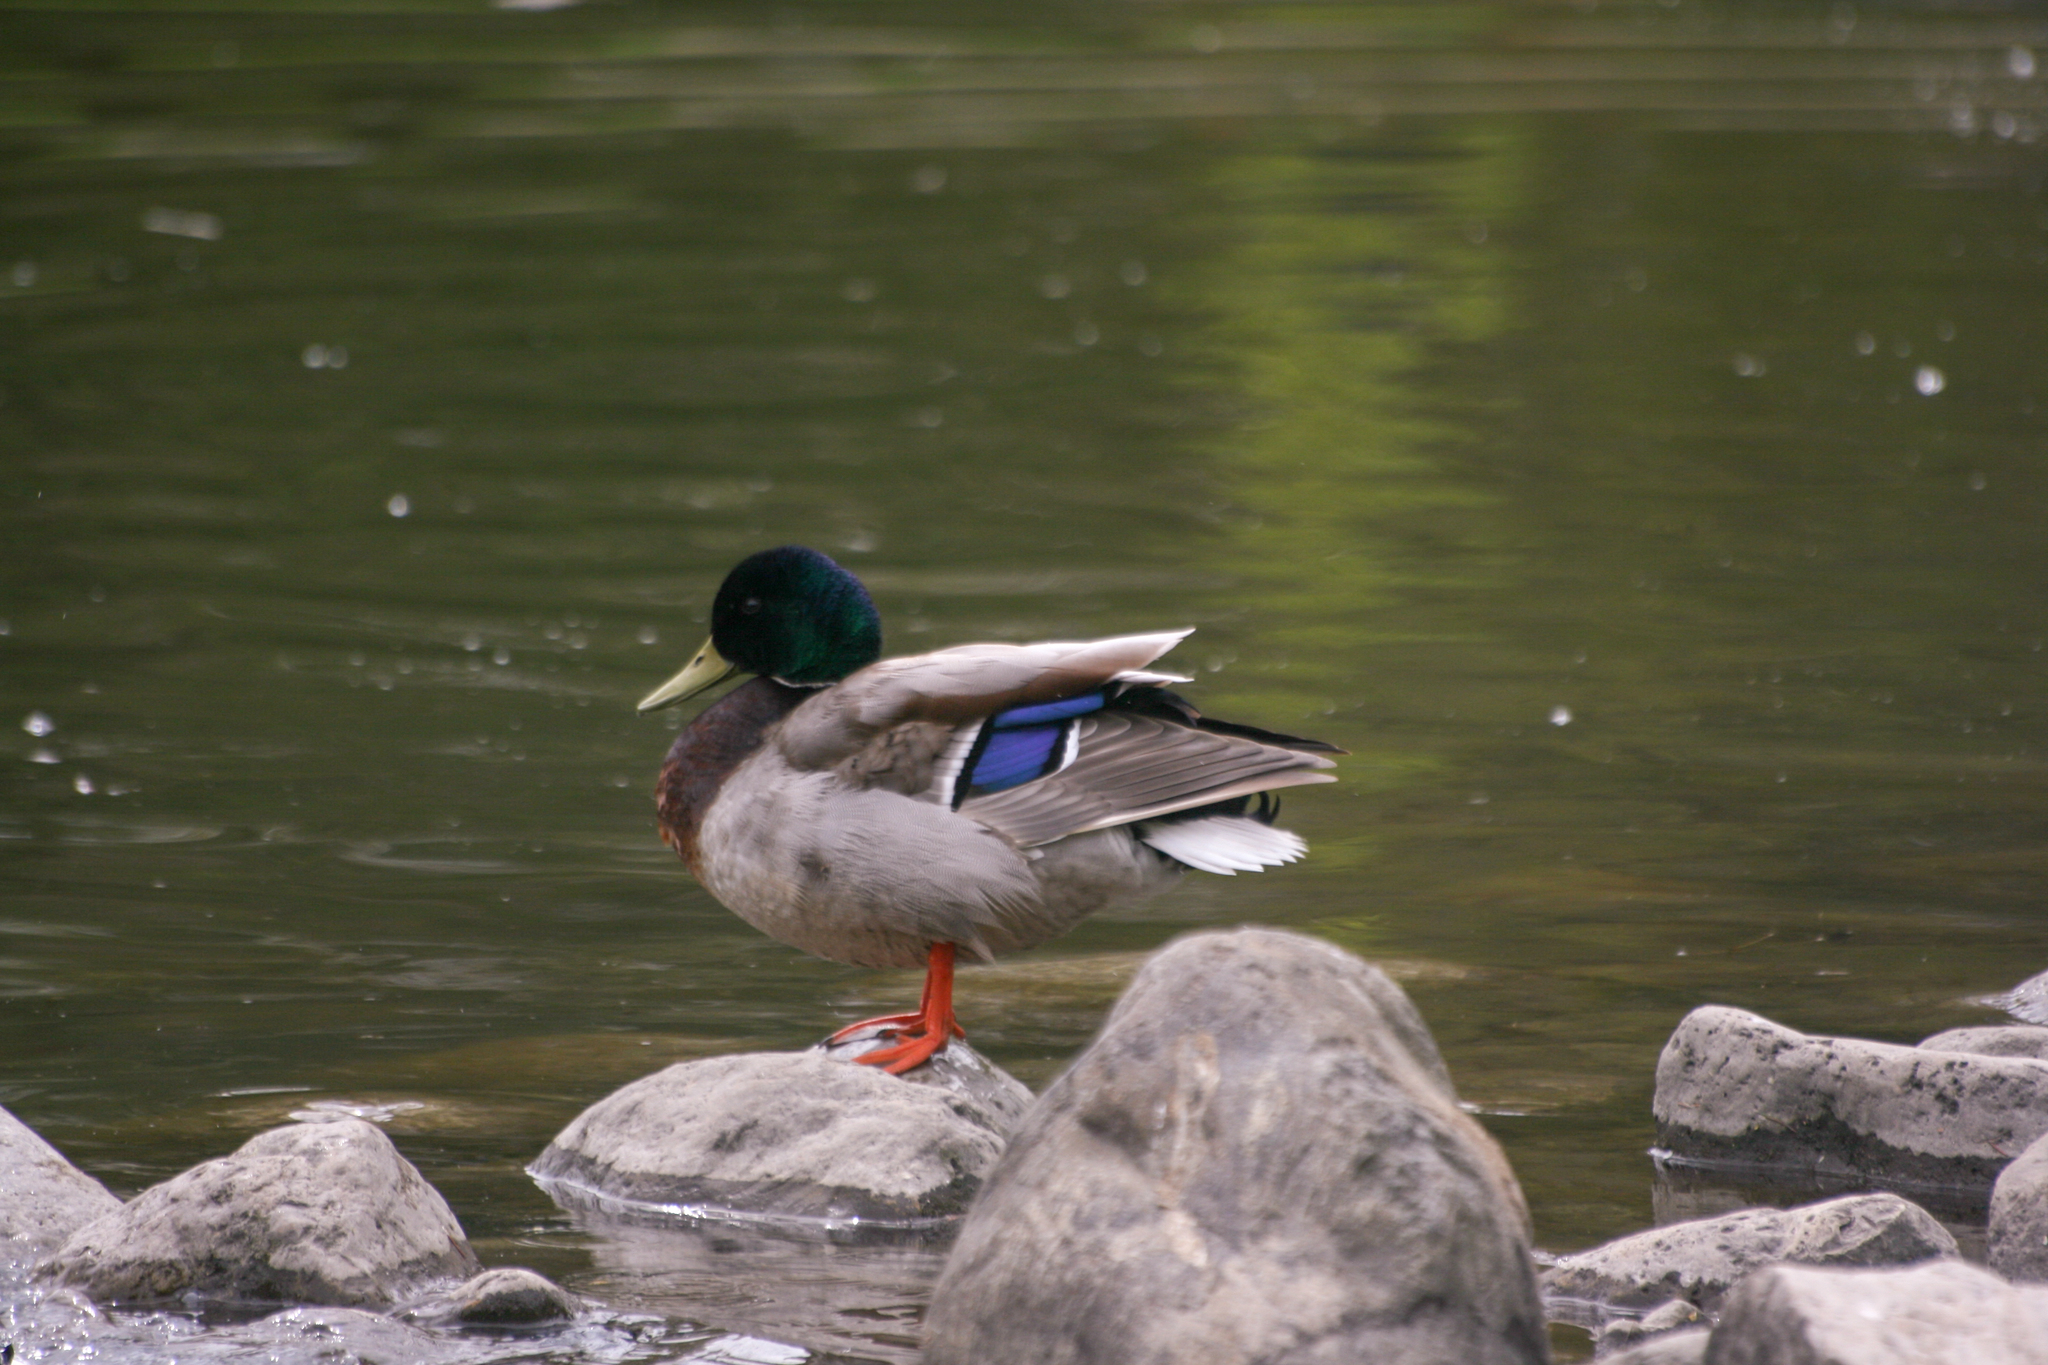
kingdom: Animalia
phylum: Chordata
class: Aves
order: Anseriformes
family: Anatidae
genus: Anas
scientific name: Anas platyrhynchos
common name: Mallard
